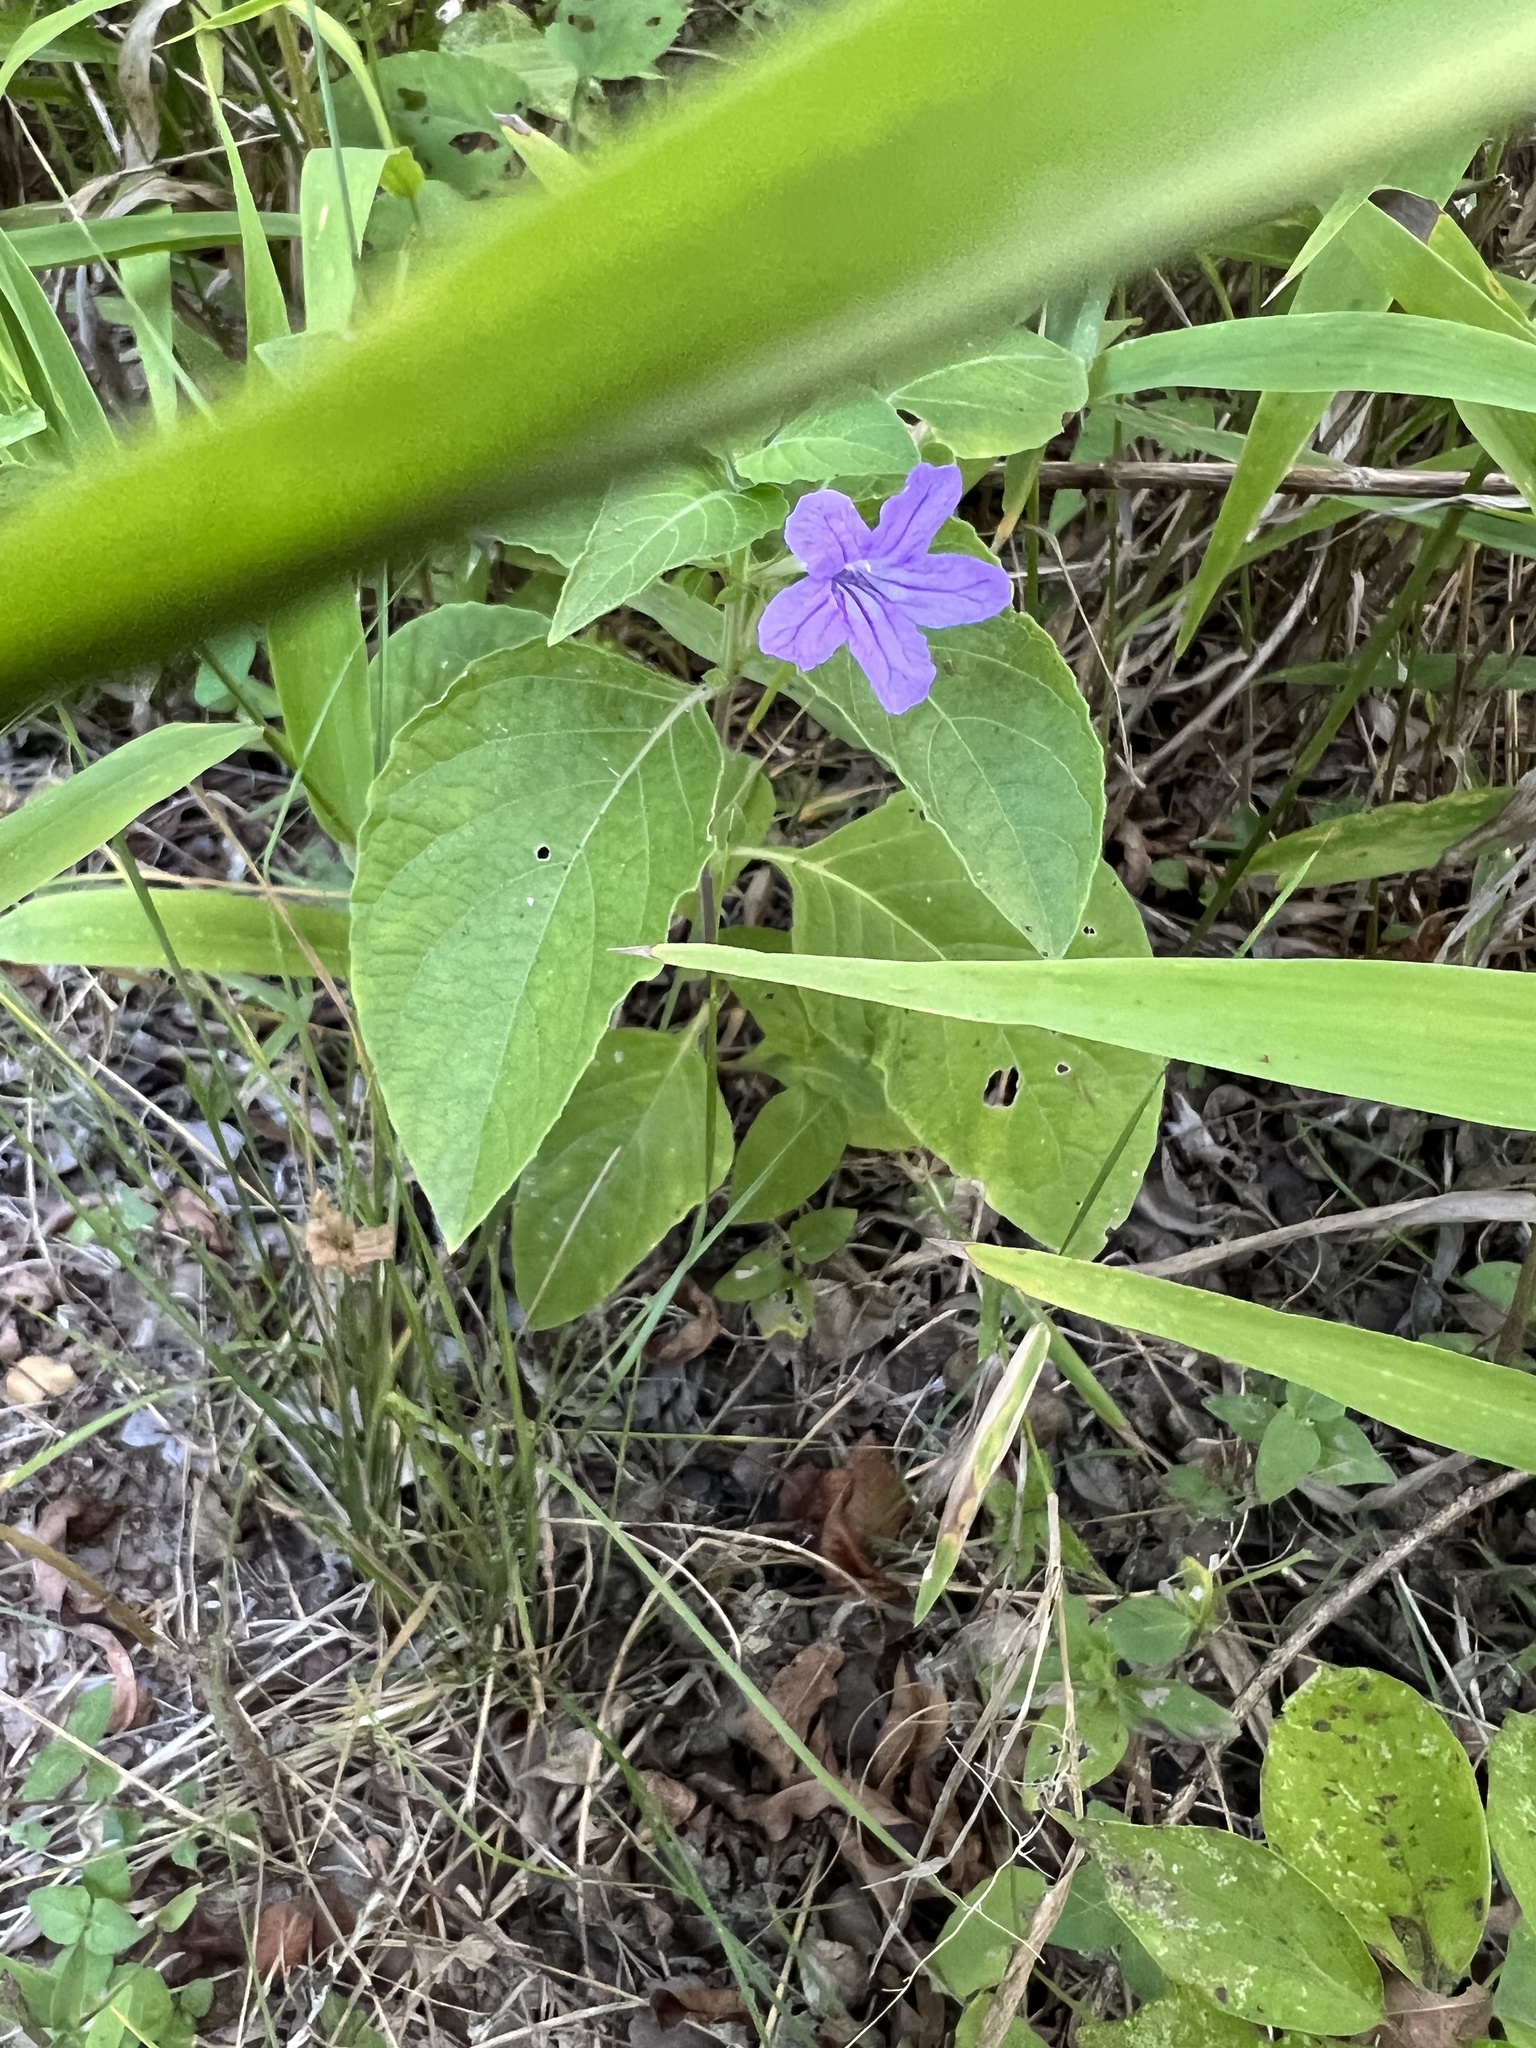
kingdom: Plantae
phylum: Tracheophyta
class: Magnoliopsida
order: Lamiales
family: Acanthaceae
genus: Ruellia
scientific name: Ruellia drummondiana
